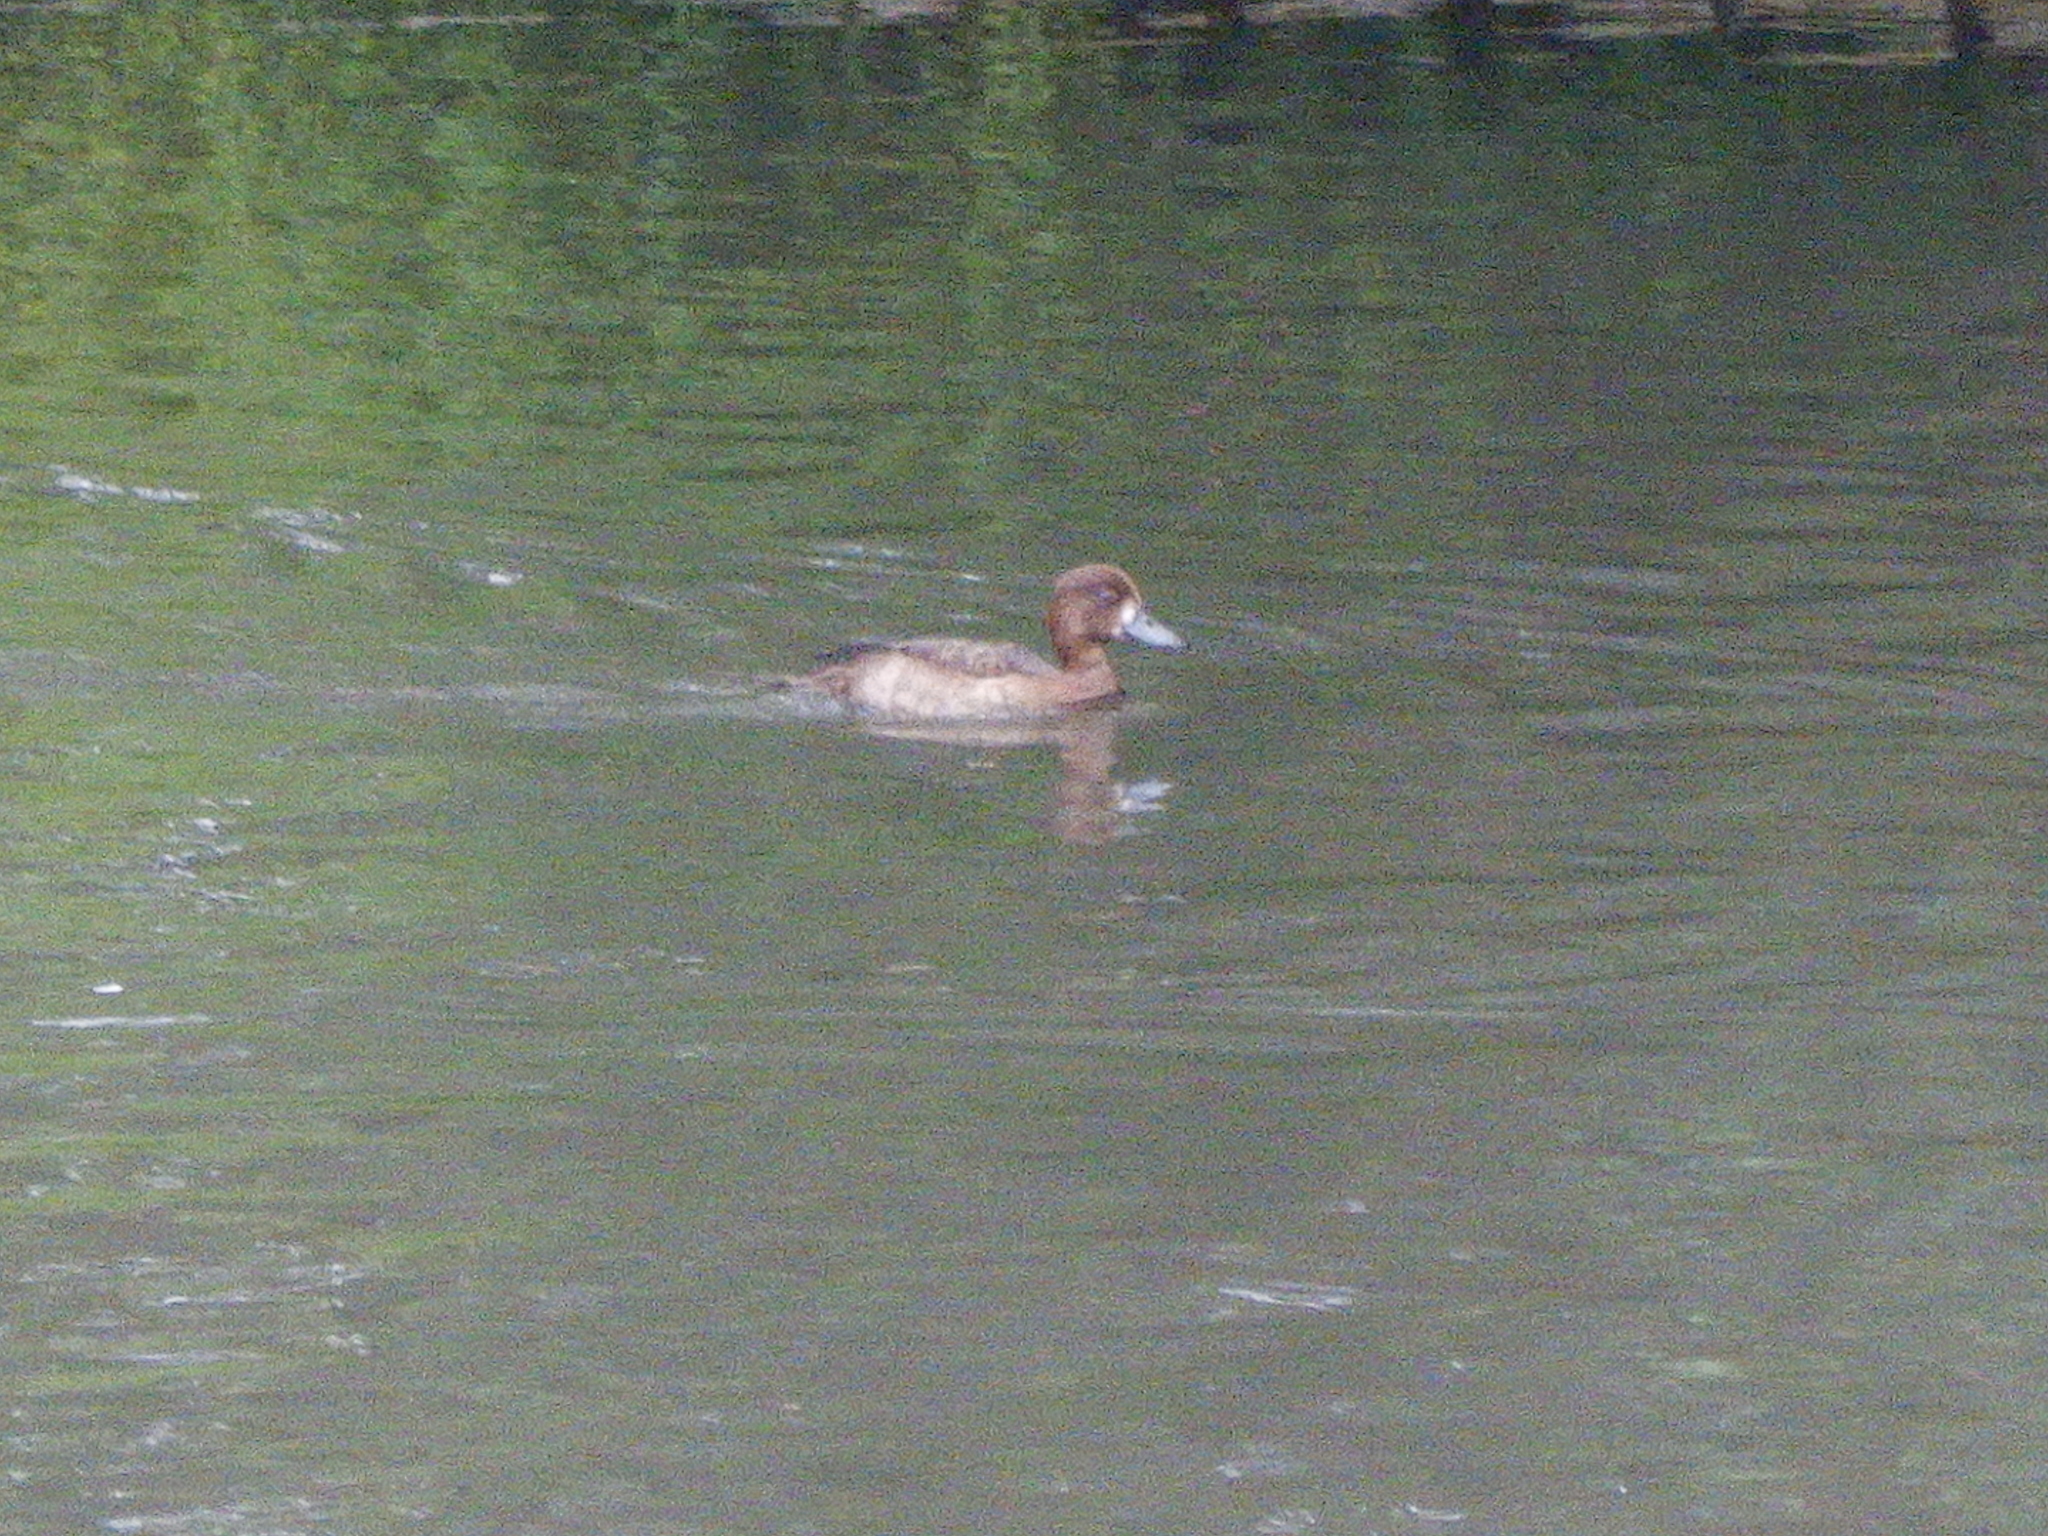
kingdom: Animalia
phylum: Chordata
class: Aves
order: Anseriformes
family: Anatidae
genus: Aythya
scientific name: Aythya fuligula
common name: Tufted duck
